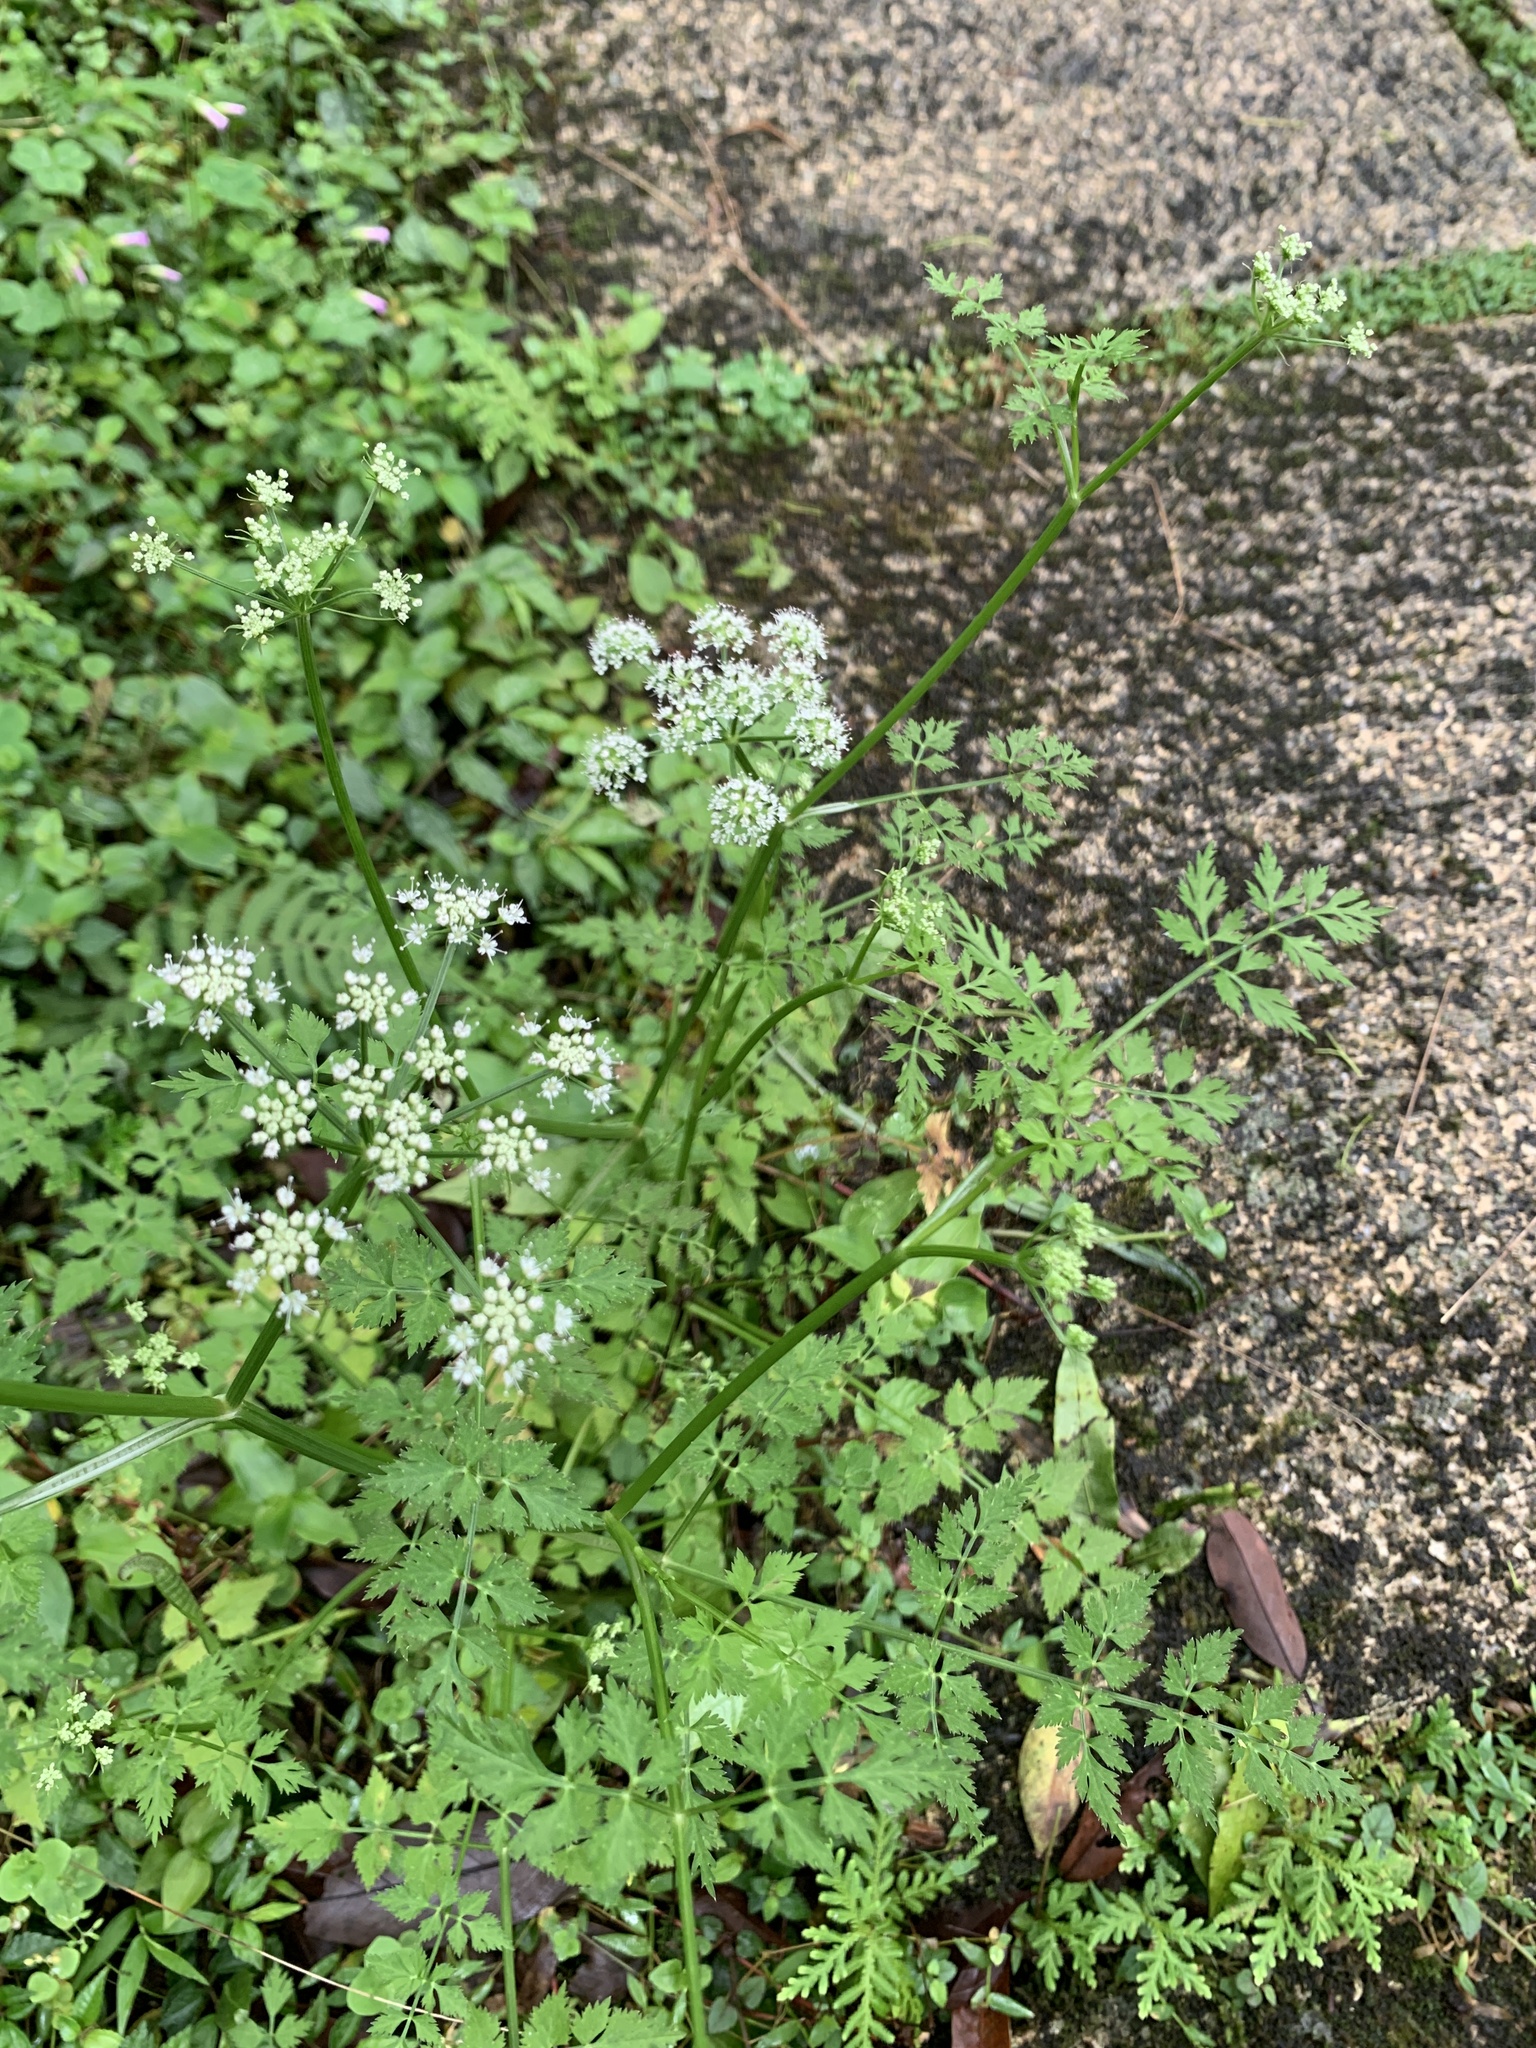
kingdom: Plantae
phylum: Tracheophyta
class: Magnoliopsida
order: Apiales
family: Apiaceae
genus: Oenanthe
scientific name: Oenanthe javanica
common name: Java water-dropwort
